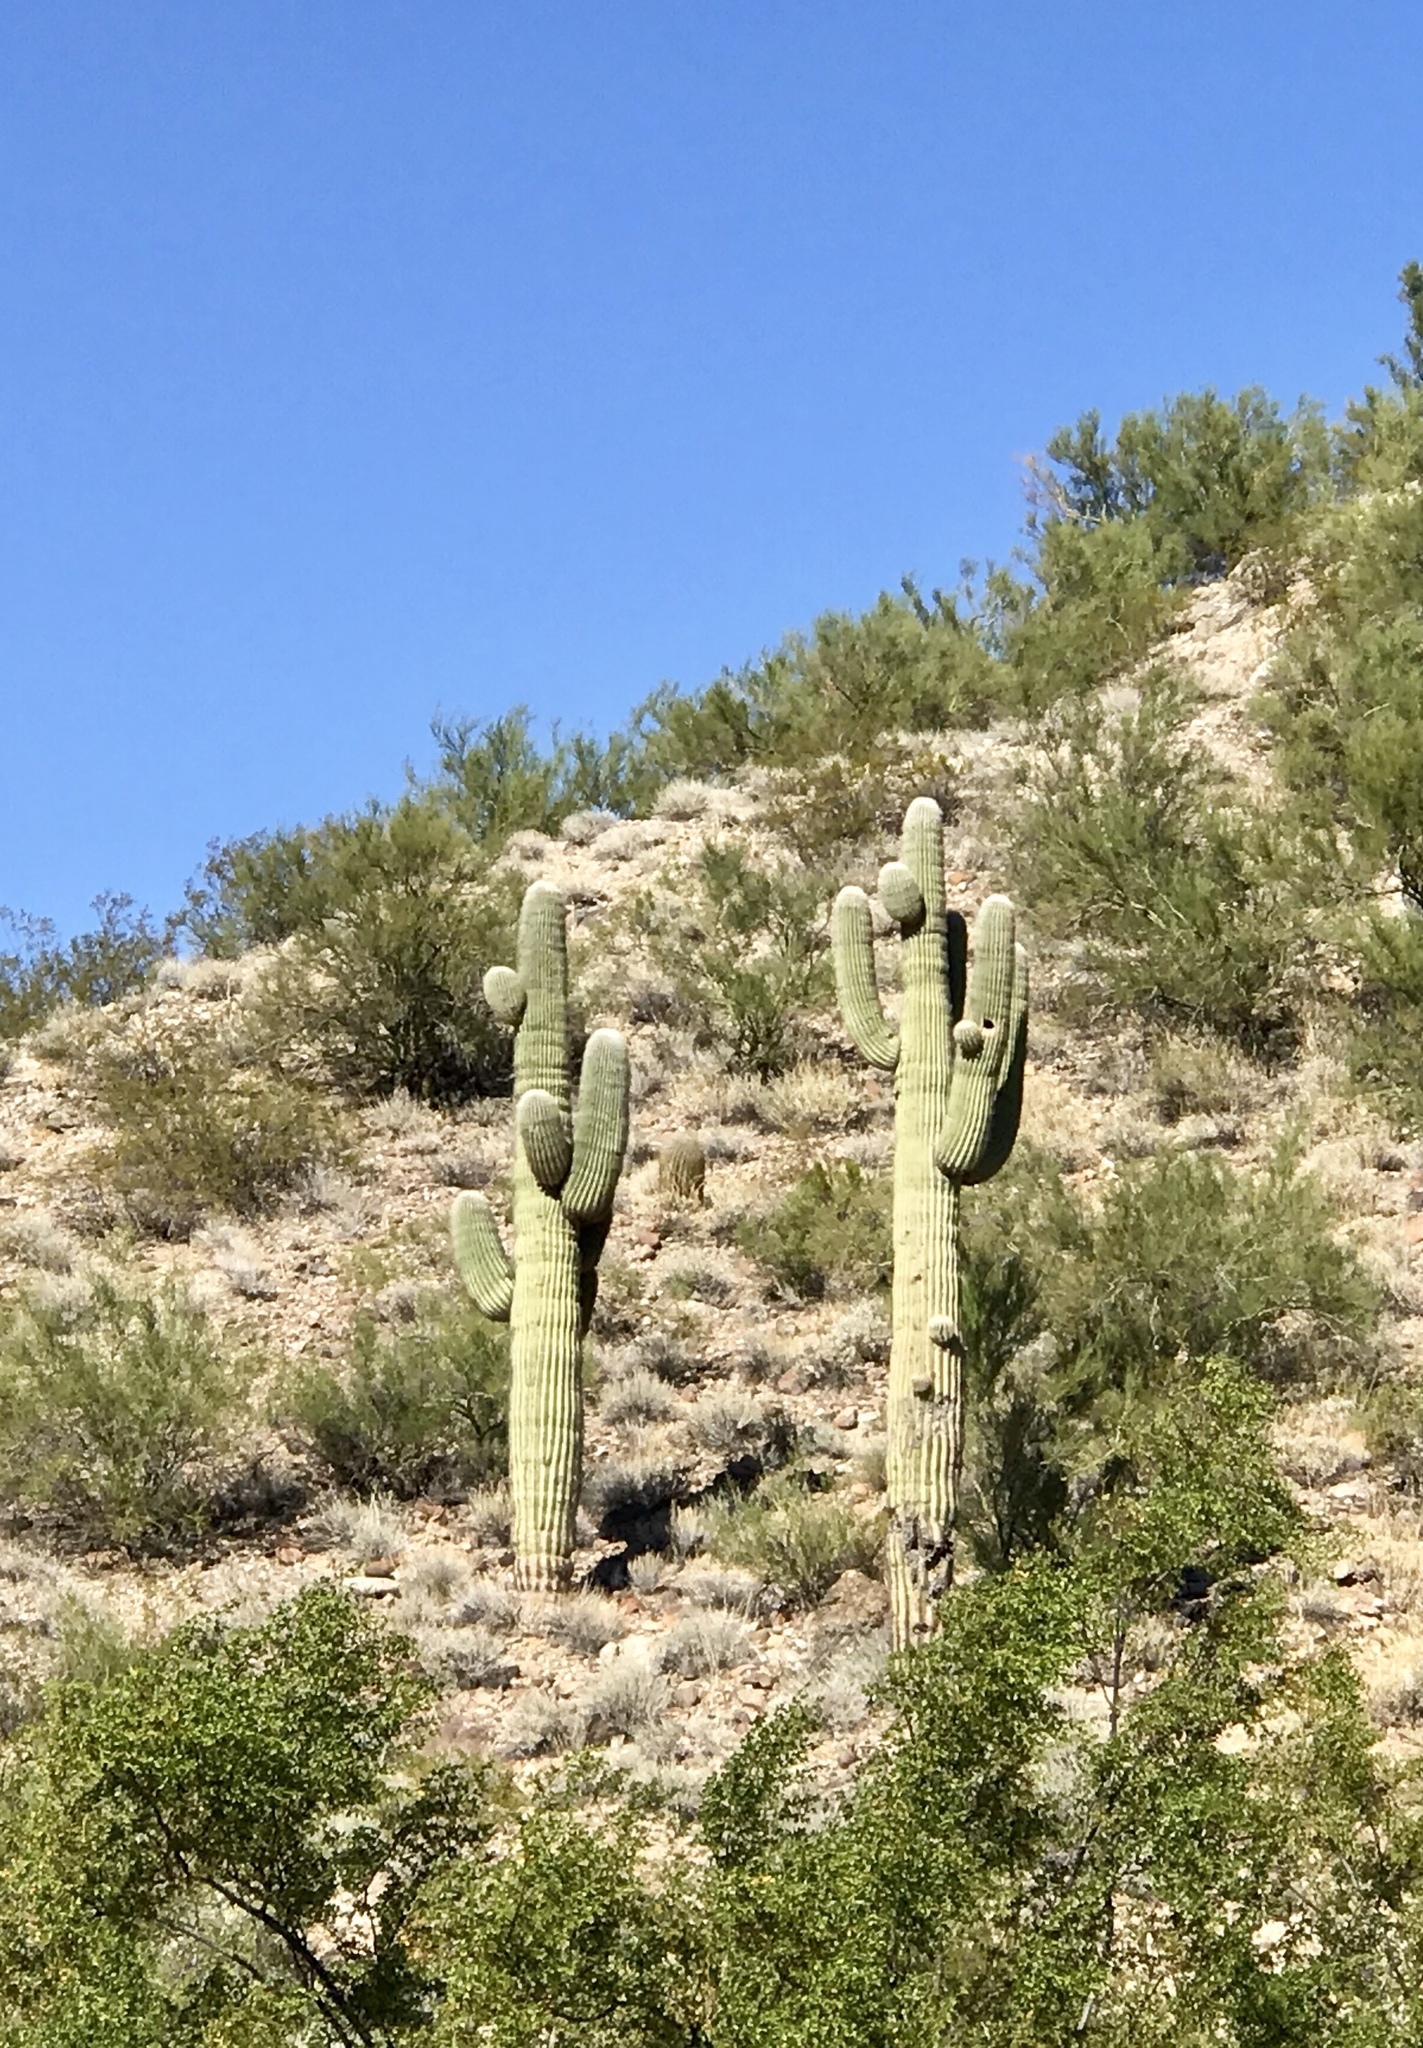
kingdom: Plantae
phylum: Tracheophyta
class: Magnoliopsida
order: Caryophyllales
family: Cactaceae
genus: Carnegiea
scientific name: Carnegiea gigantea
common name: Saguaro
